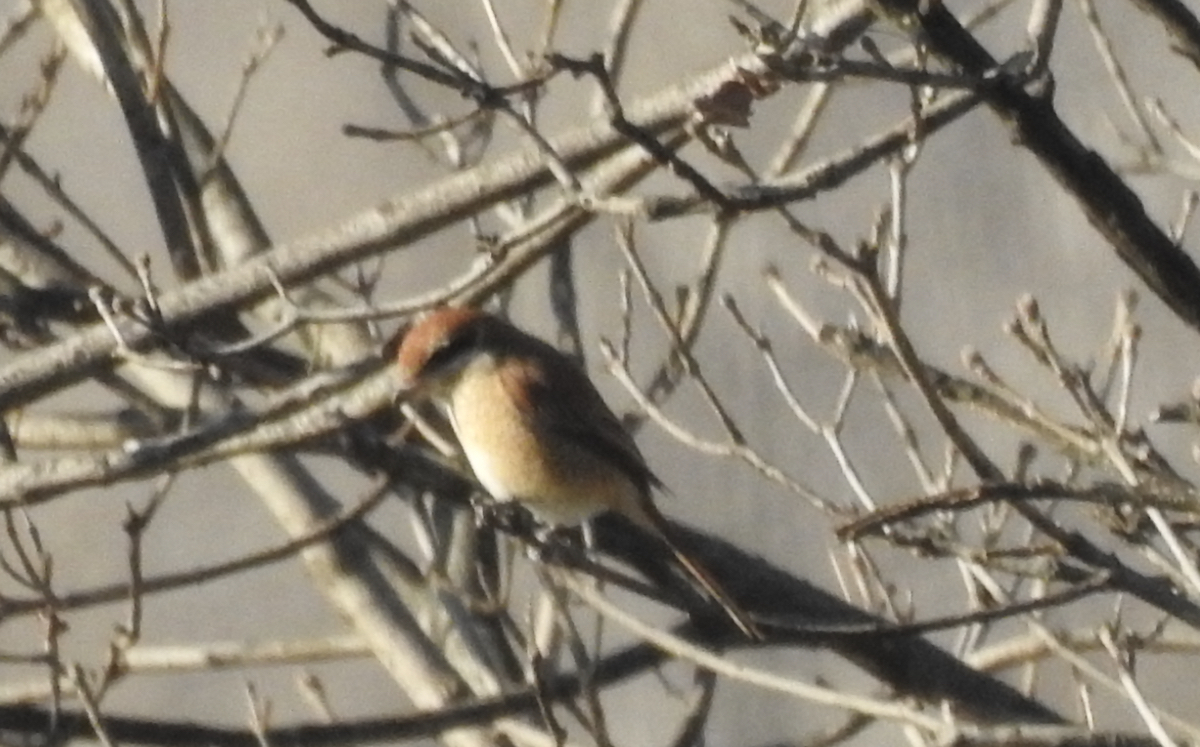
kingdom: Animalia
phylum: Chordata
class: Aves
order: Passeriformes
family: Laniidae
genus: Lanius
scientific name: Lanius cristatus
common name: Brown shrike
